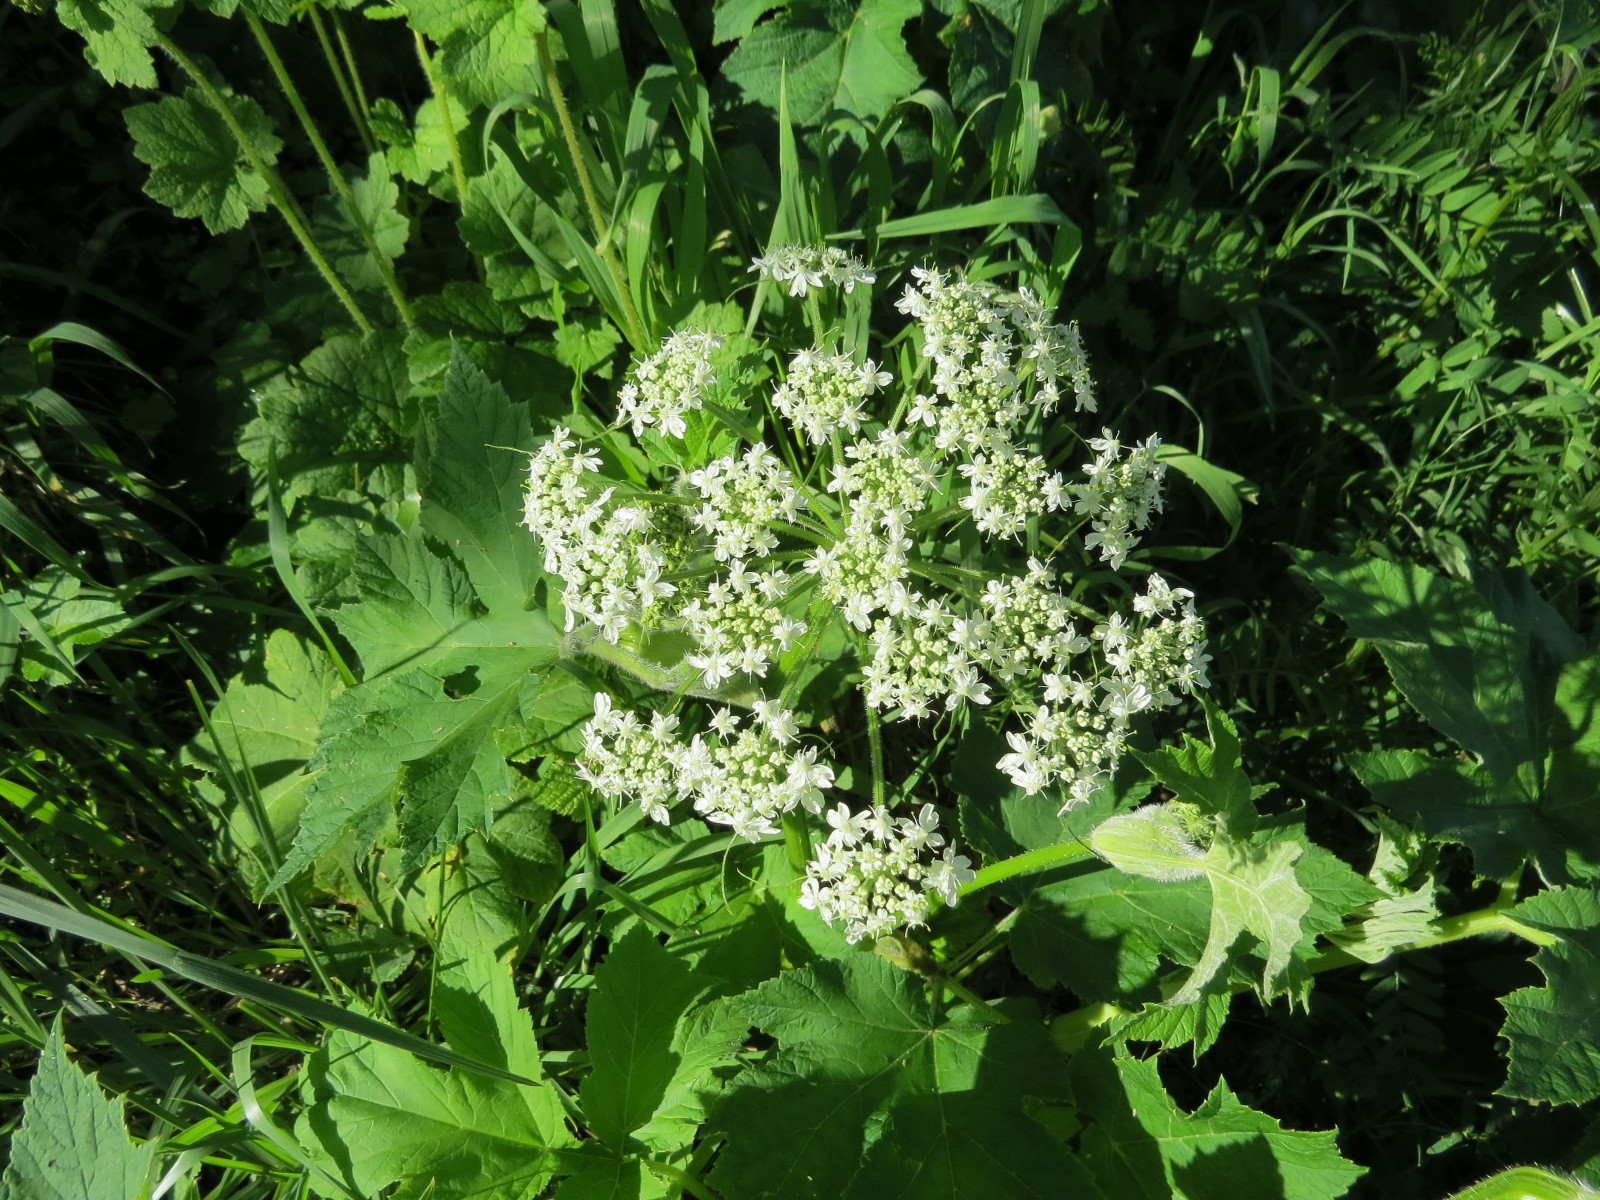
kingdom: Plantae
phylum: Tracheophyta
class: Magnoliopsida
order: Apiales
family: Apiaceae
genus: Heracleum
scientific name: Heracleum maximum
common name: American cow parsnip
